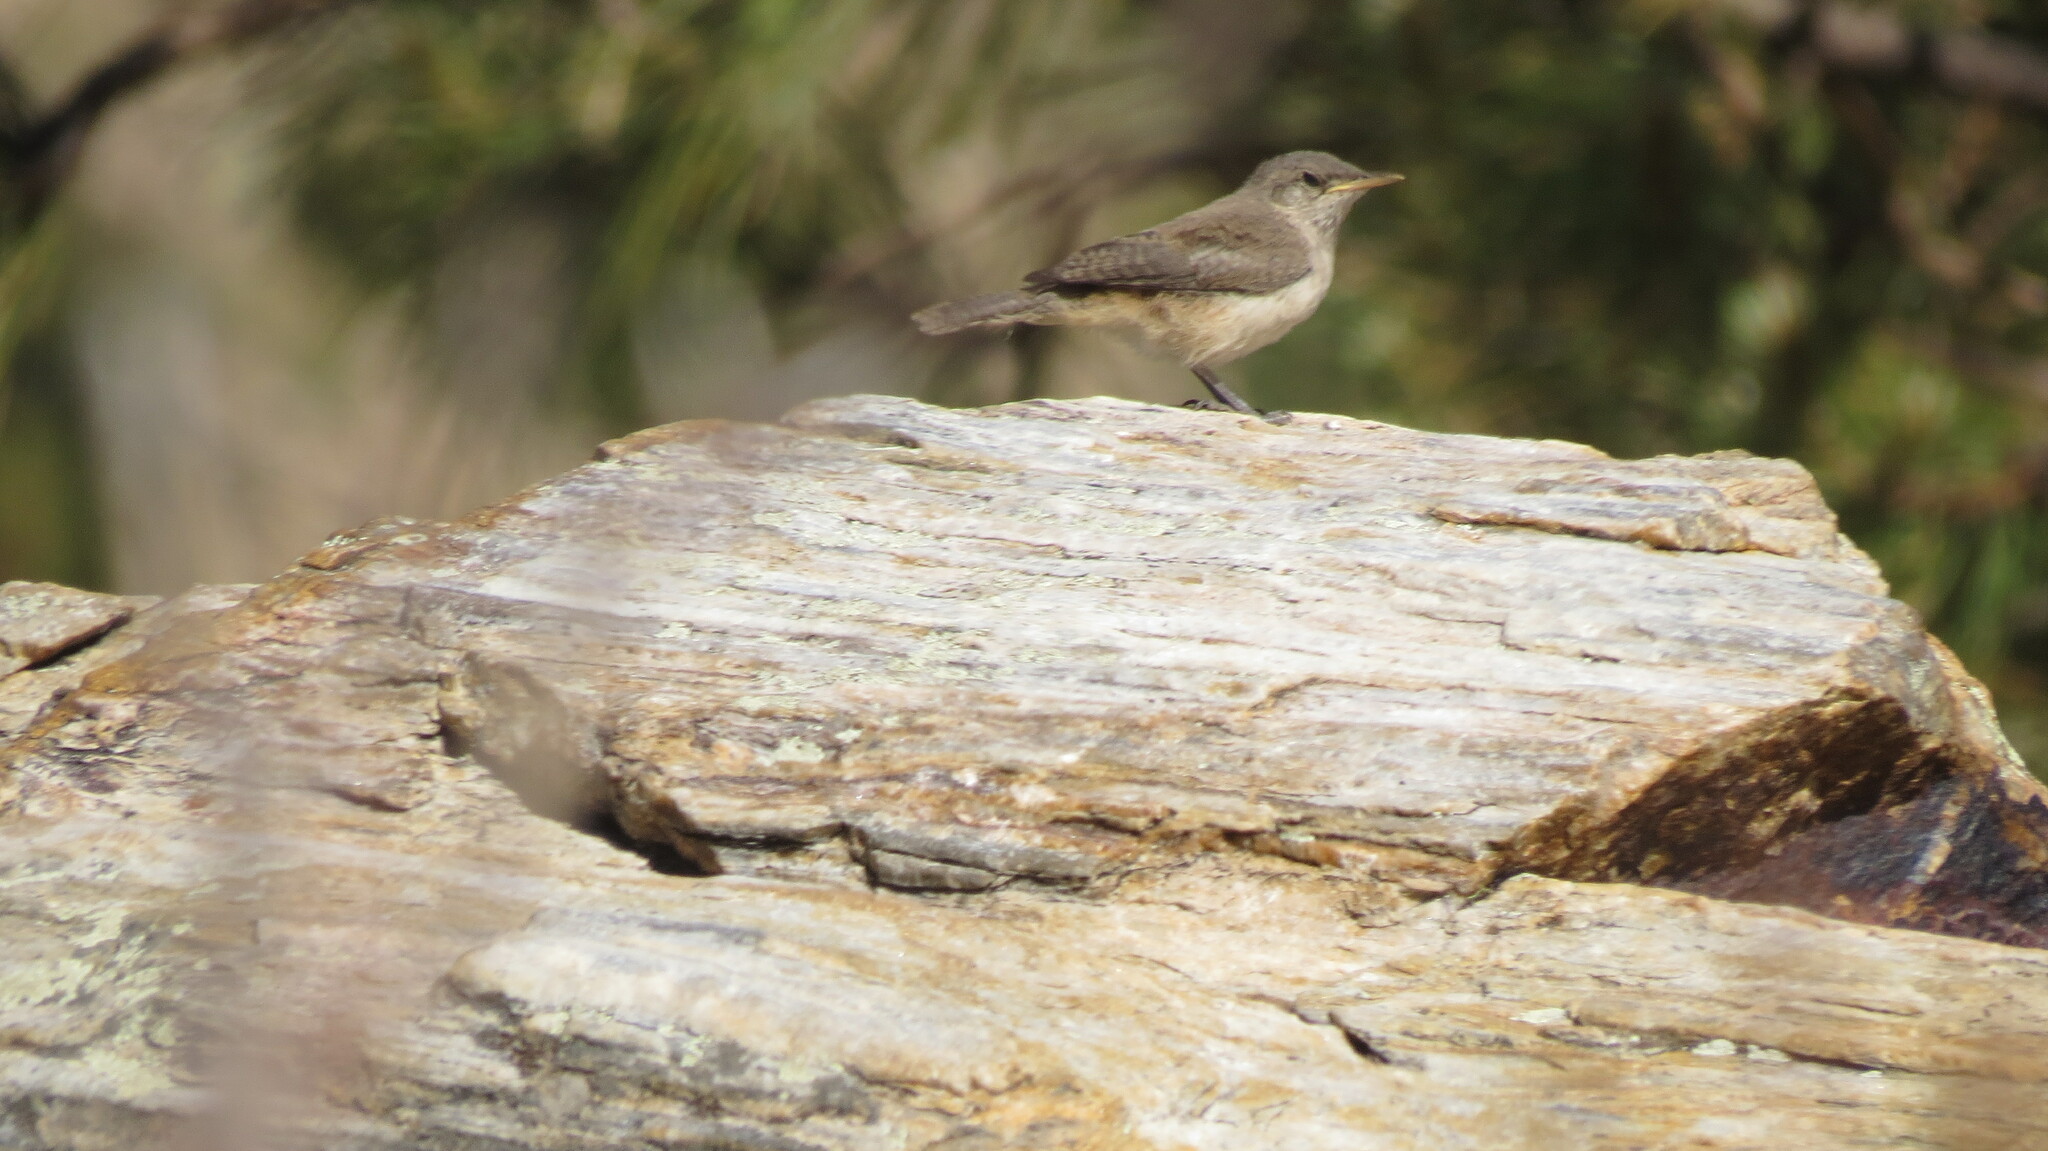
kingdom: Animalia
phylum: Chordata
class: Aves
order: Passeriformes
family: Troglodytidae
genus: Salpinctes
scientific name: Salpinctes obsoletus
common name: Rock wren
